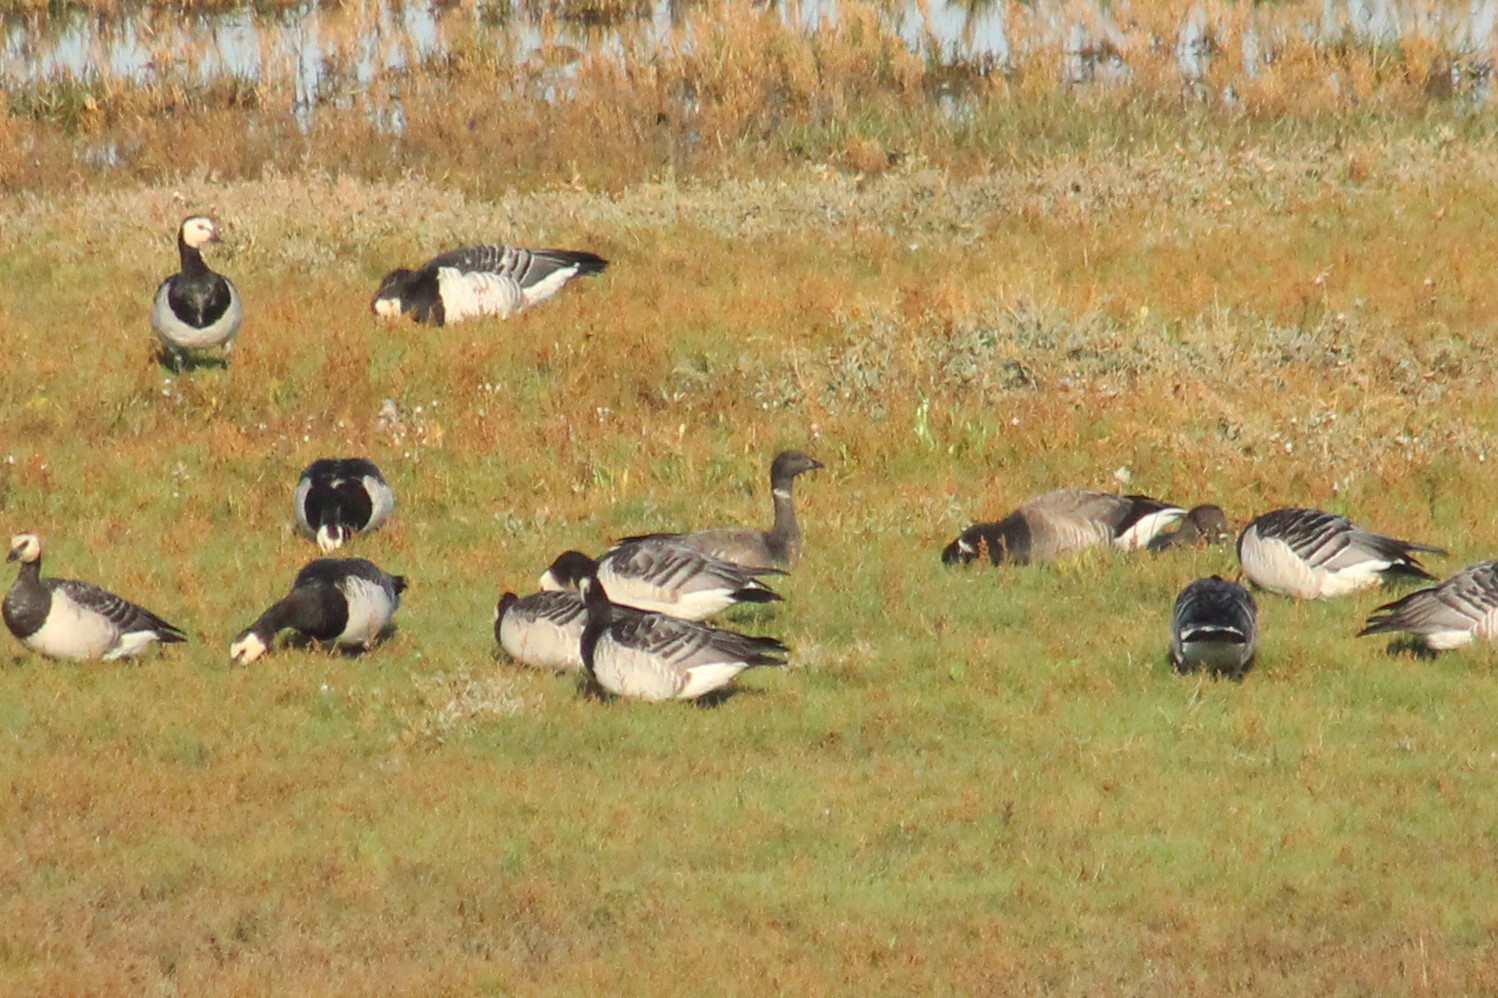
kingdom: Animalia
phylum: Chordata
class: Aves
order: Anseriformes
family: Anatidae
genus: Branta
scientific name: Branta bernicla
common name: Brant goose
